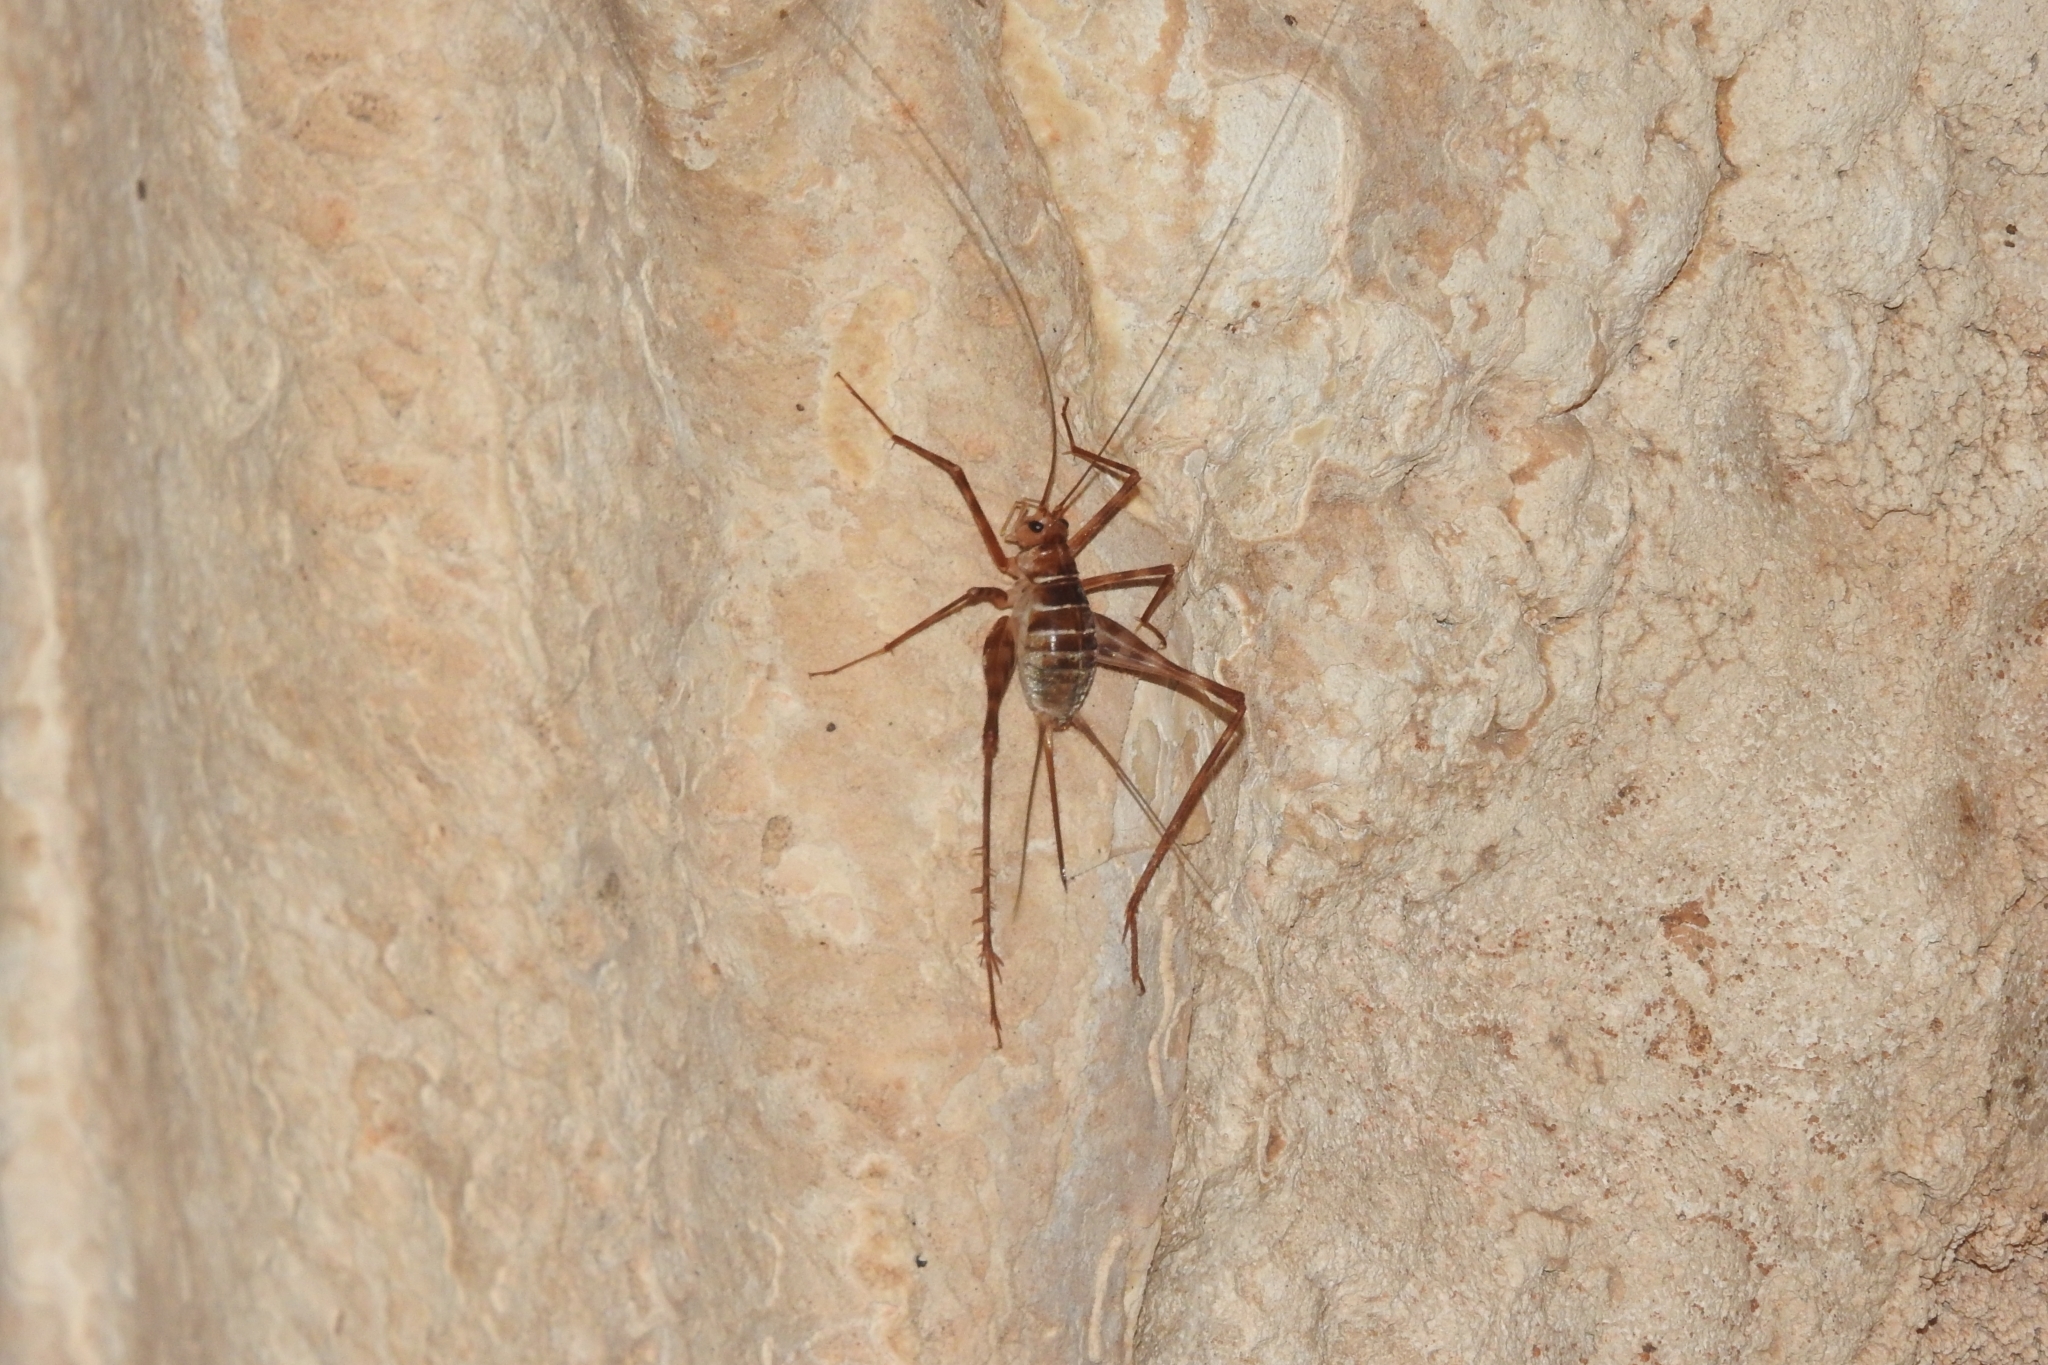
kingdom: Animalia
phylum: Arthropoda
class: Insecta
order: Orthoptera
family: Phalangopsidae
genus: Mayagryllus
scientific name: Mayagryllus yucatanus
